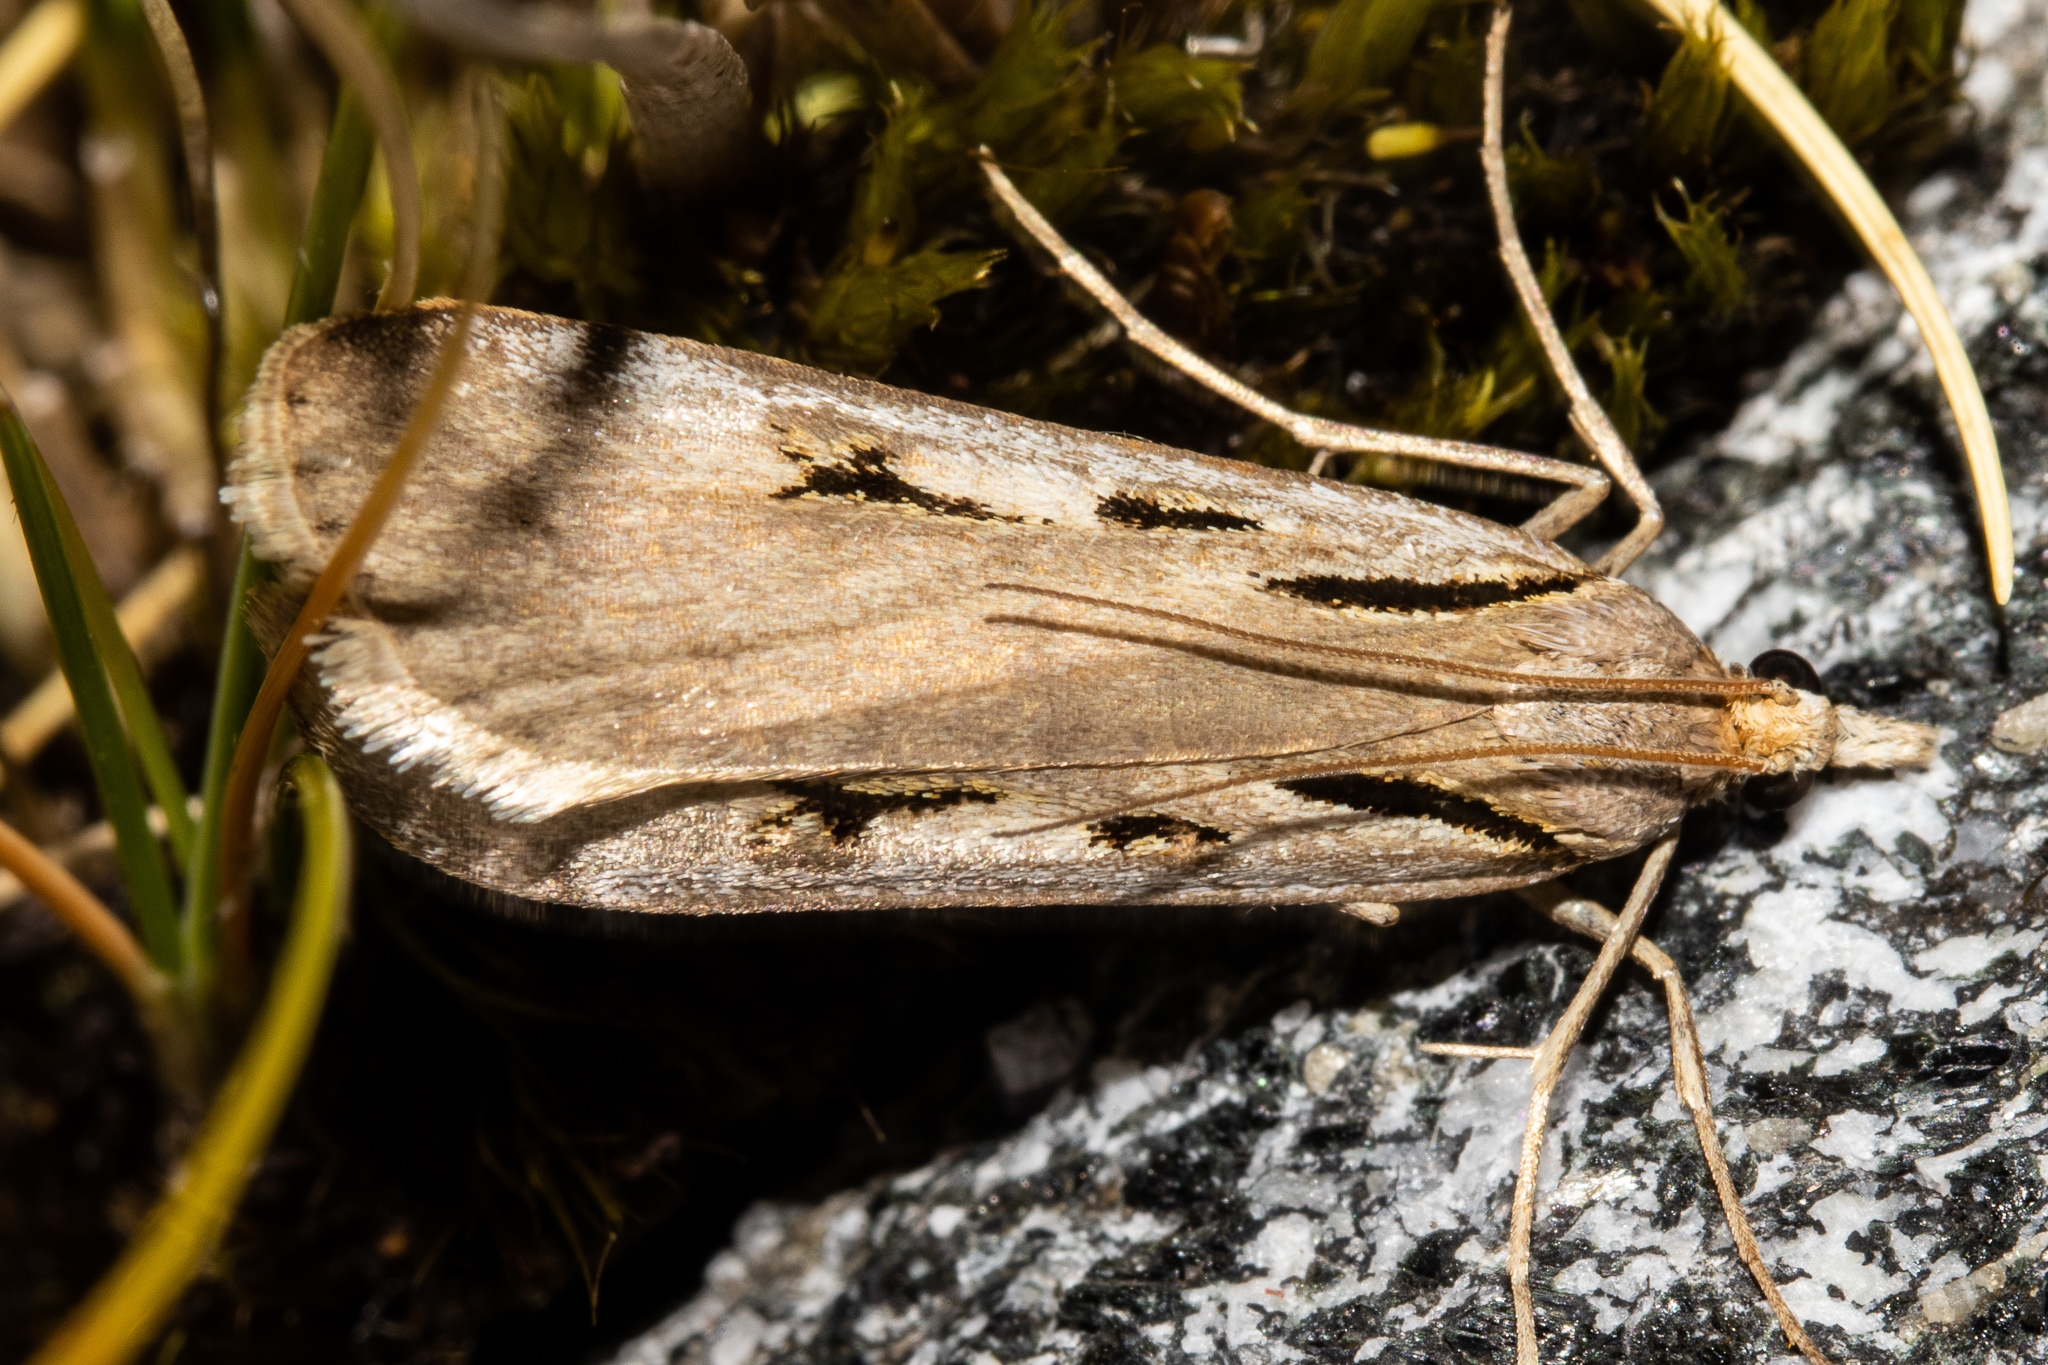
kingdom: Animalia
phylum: Arthropoda
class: Insecta
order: Lepidoptera
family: Crambidae
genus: Scoparia
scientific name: Scoparia scripta
